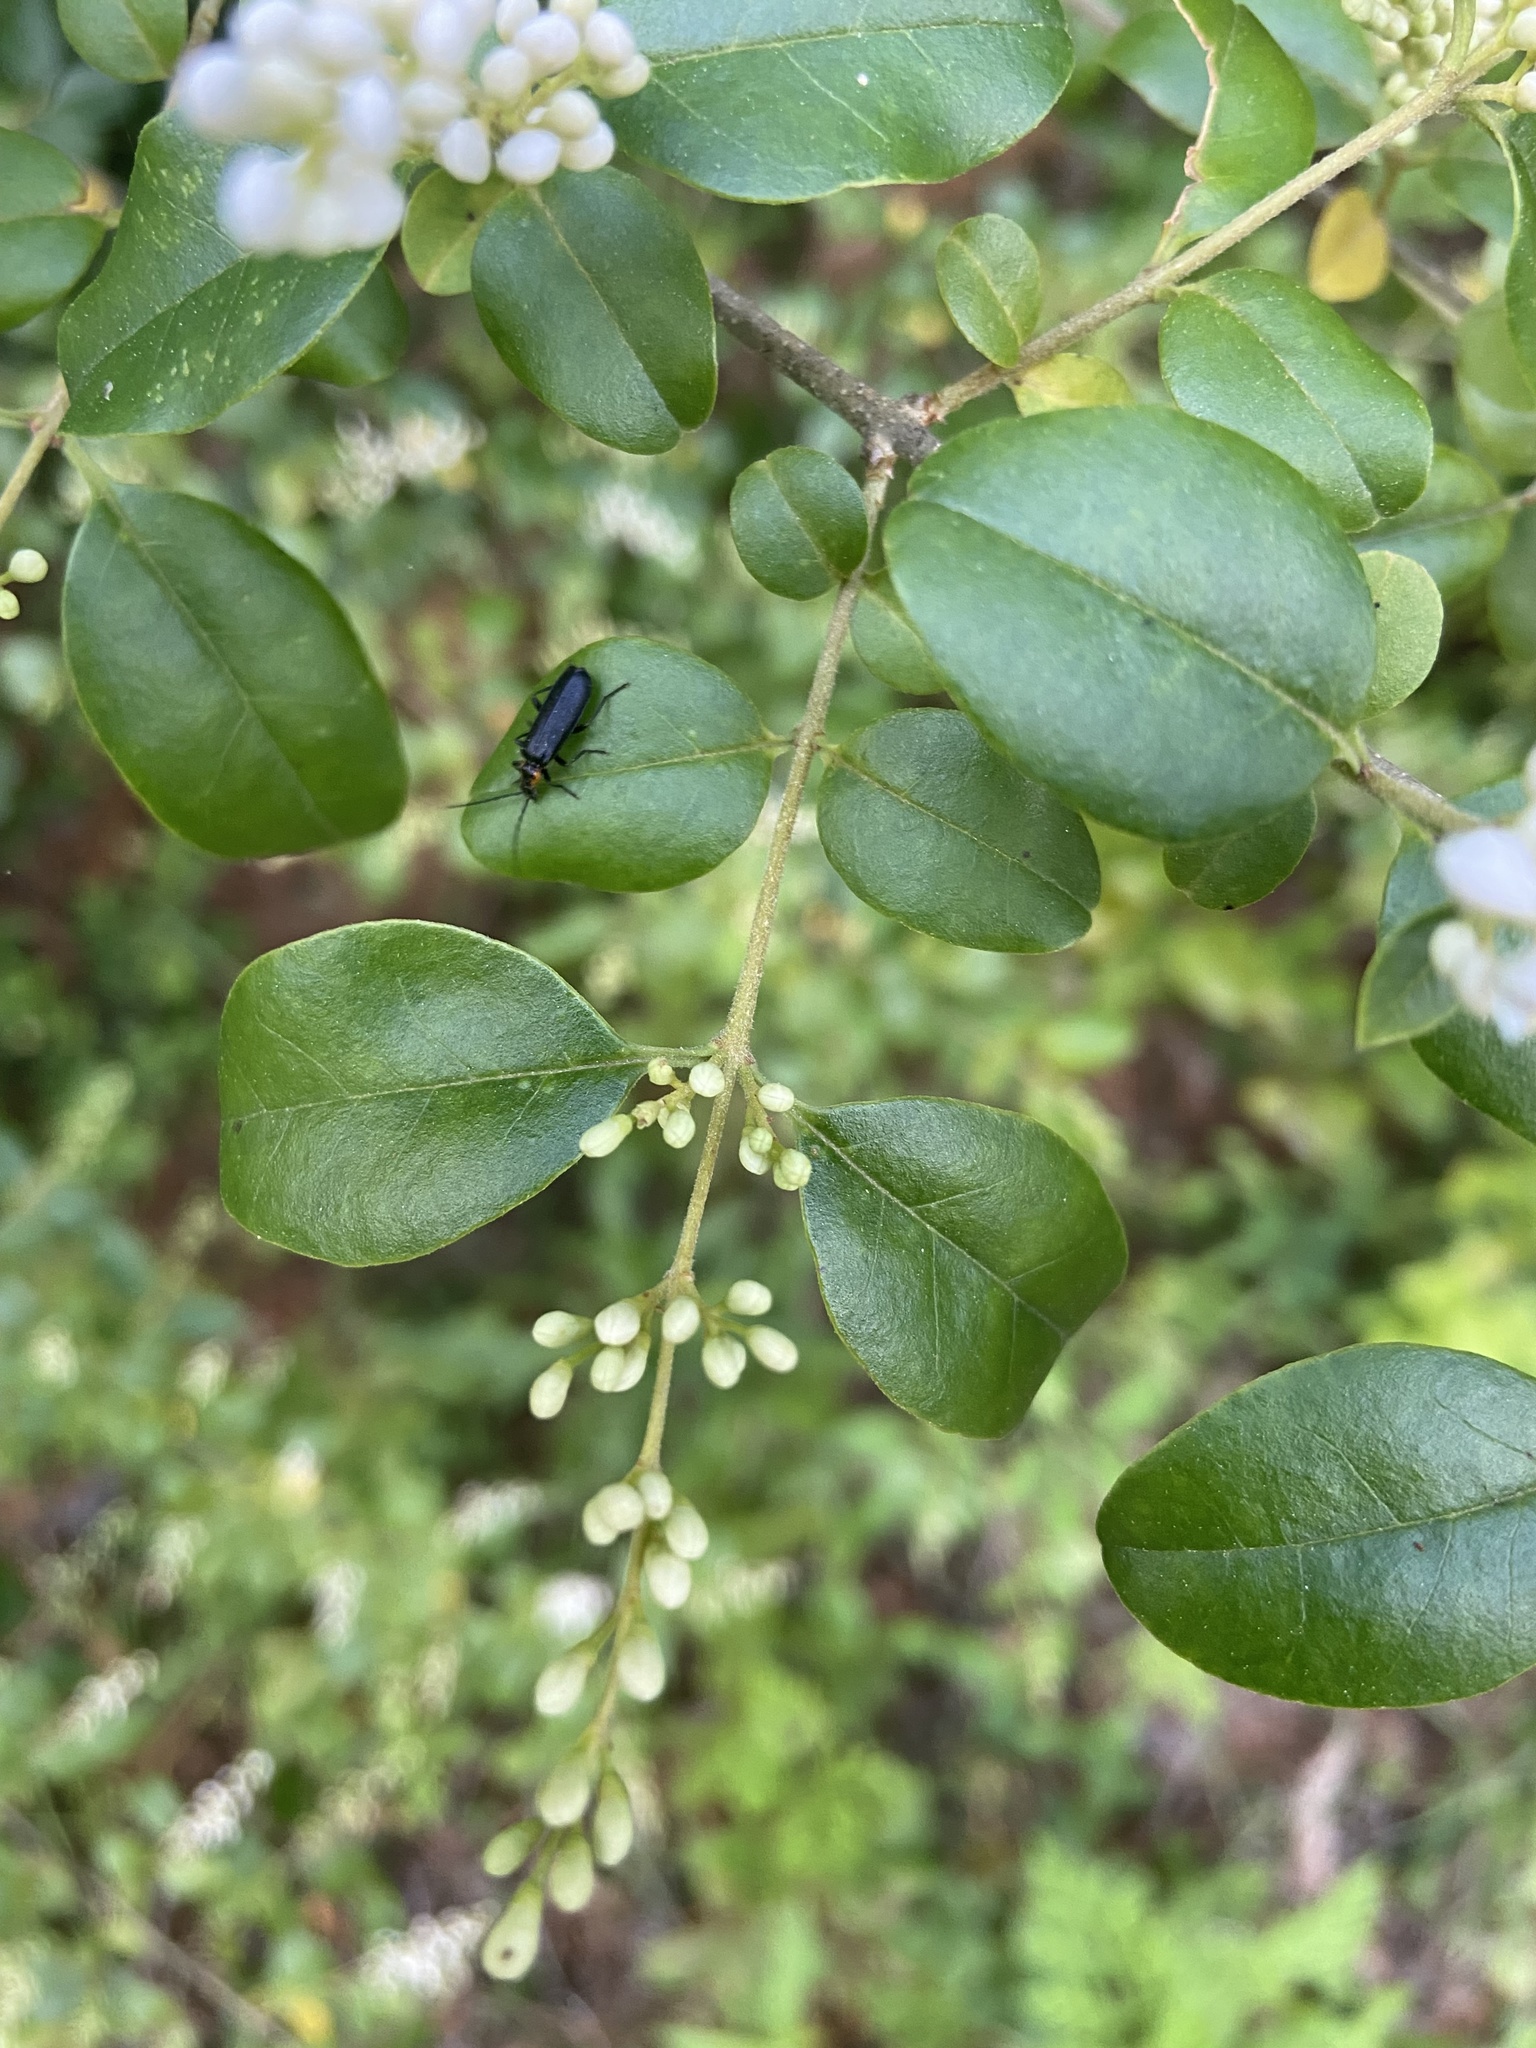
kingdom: Plantae
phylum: Tracheophyta
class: Magnoliopsida
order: Lamiales
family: Oleaceae
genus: Ligustrum
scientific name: Ligustrum sinense
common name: Chinese privet
